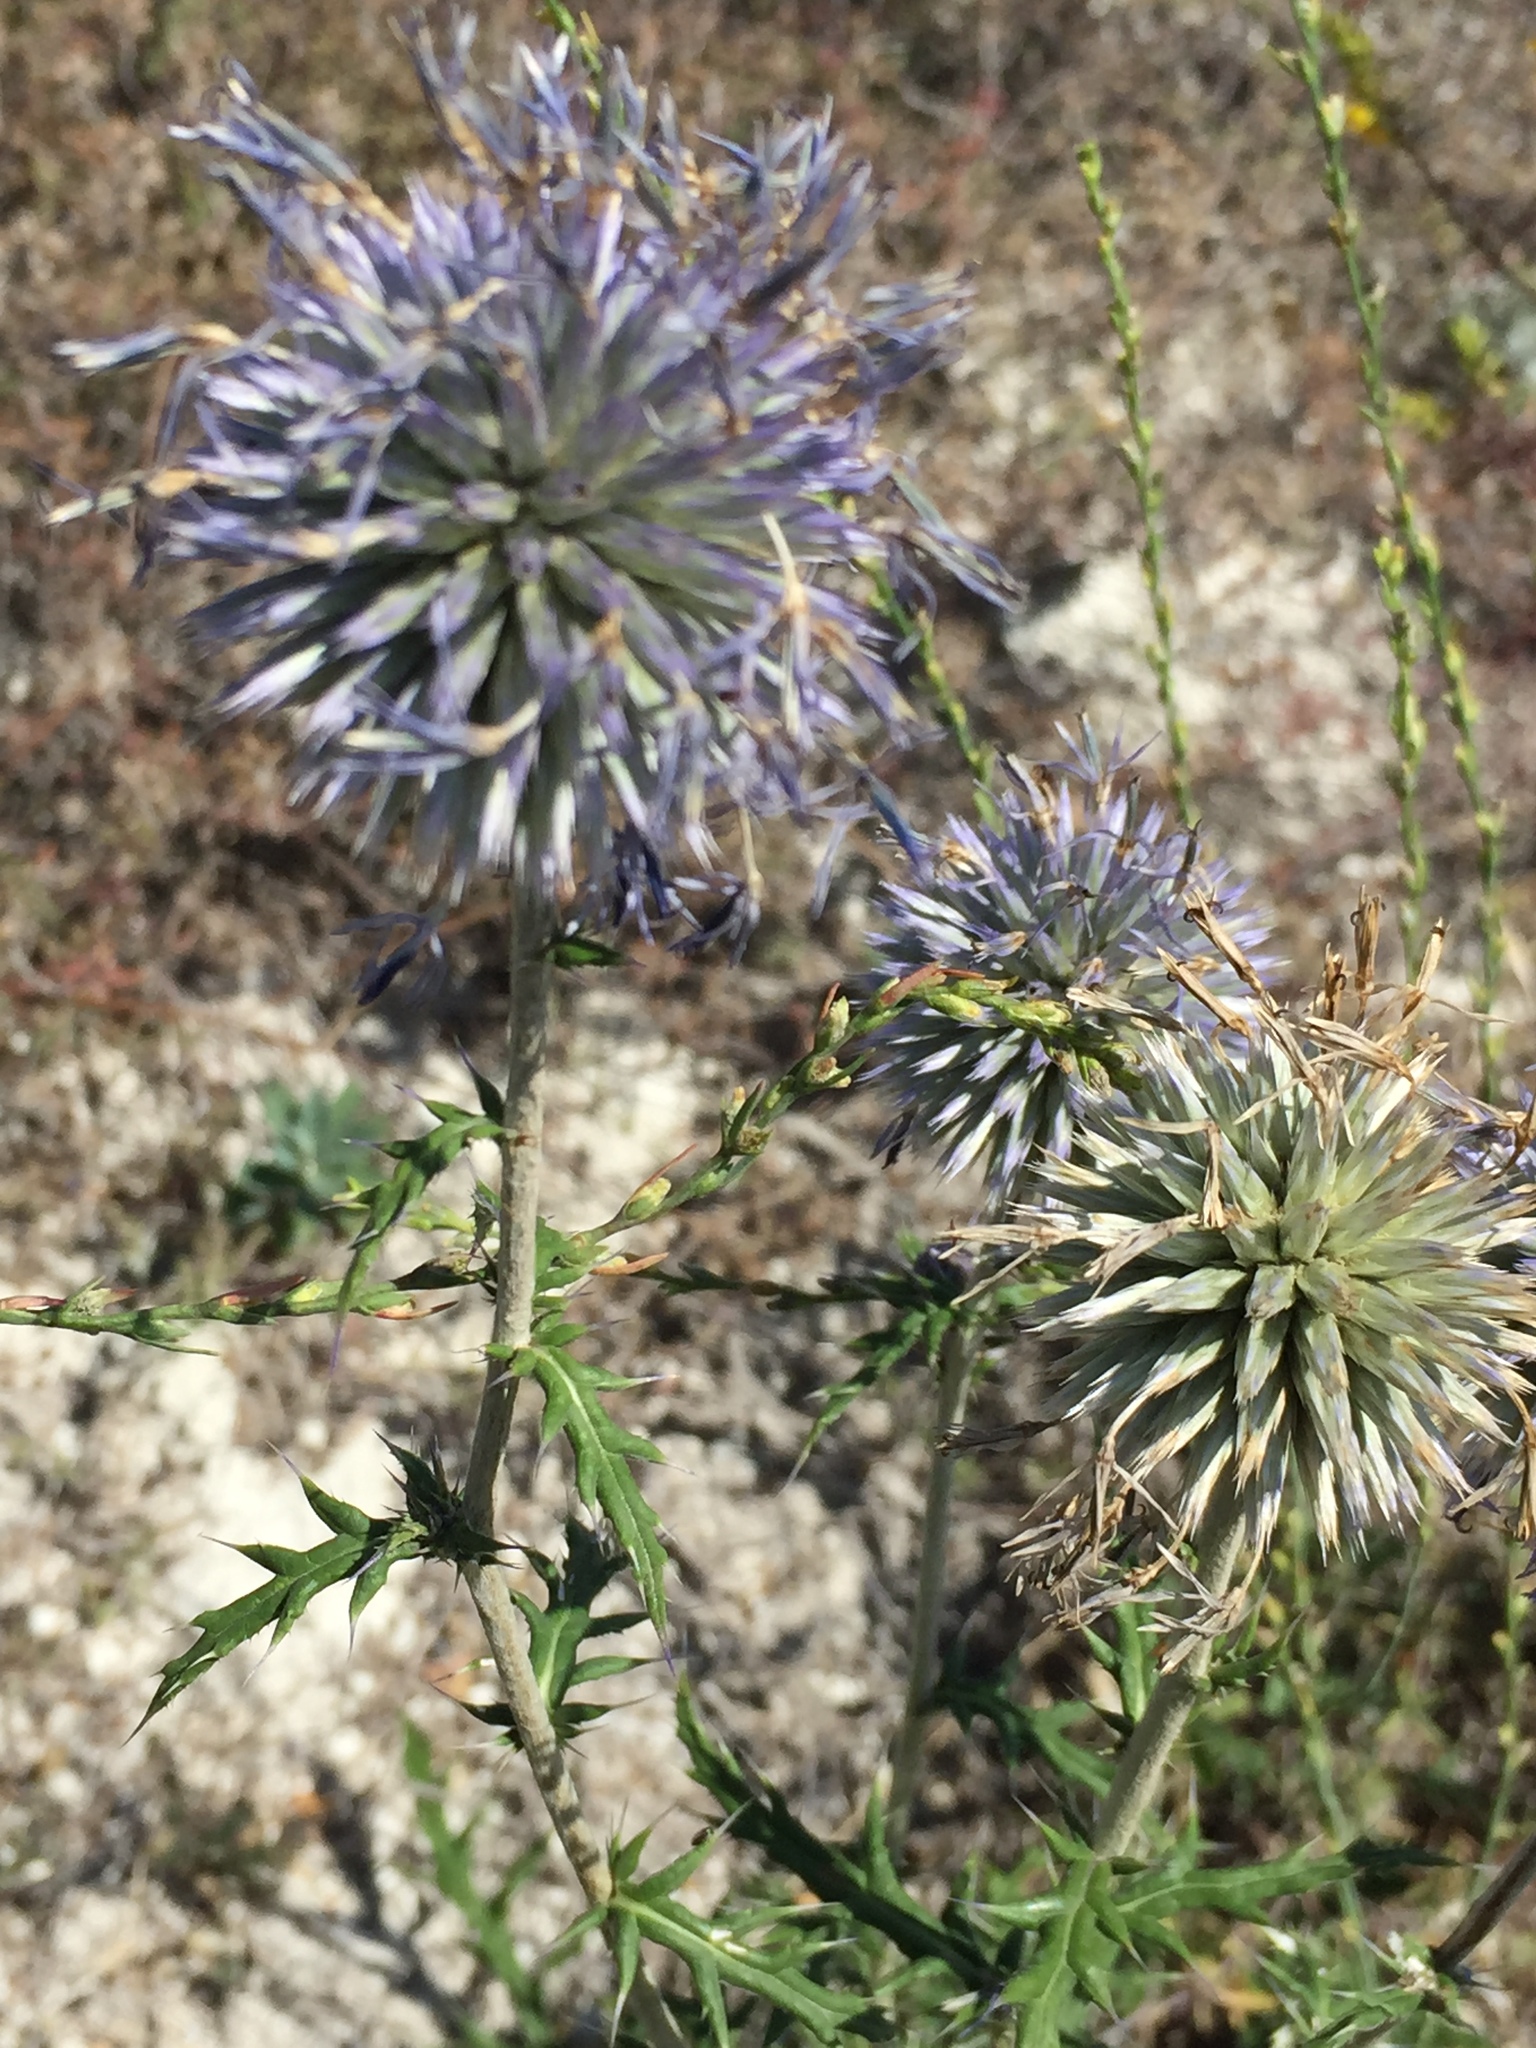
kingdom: Plantae
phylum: Tracheophyta
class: Magnoliopsida
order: Asterales
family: Asteraceae
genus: Echinops
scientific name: Echinops ritro
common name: Globe thistle
